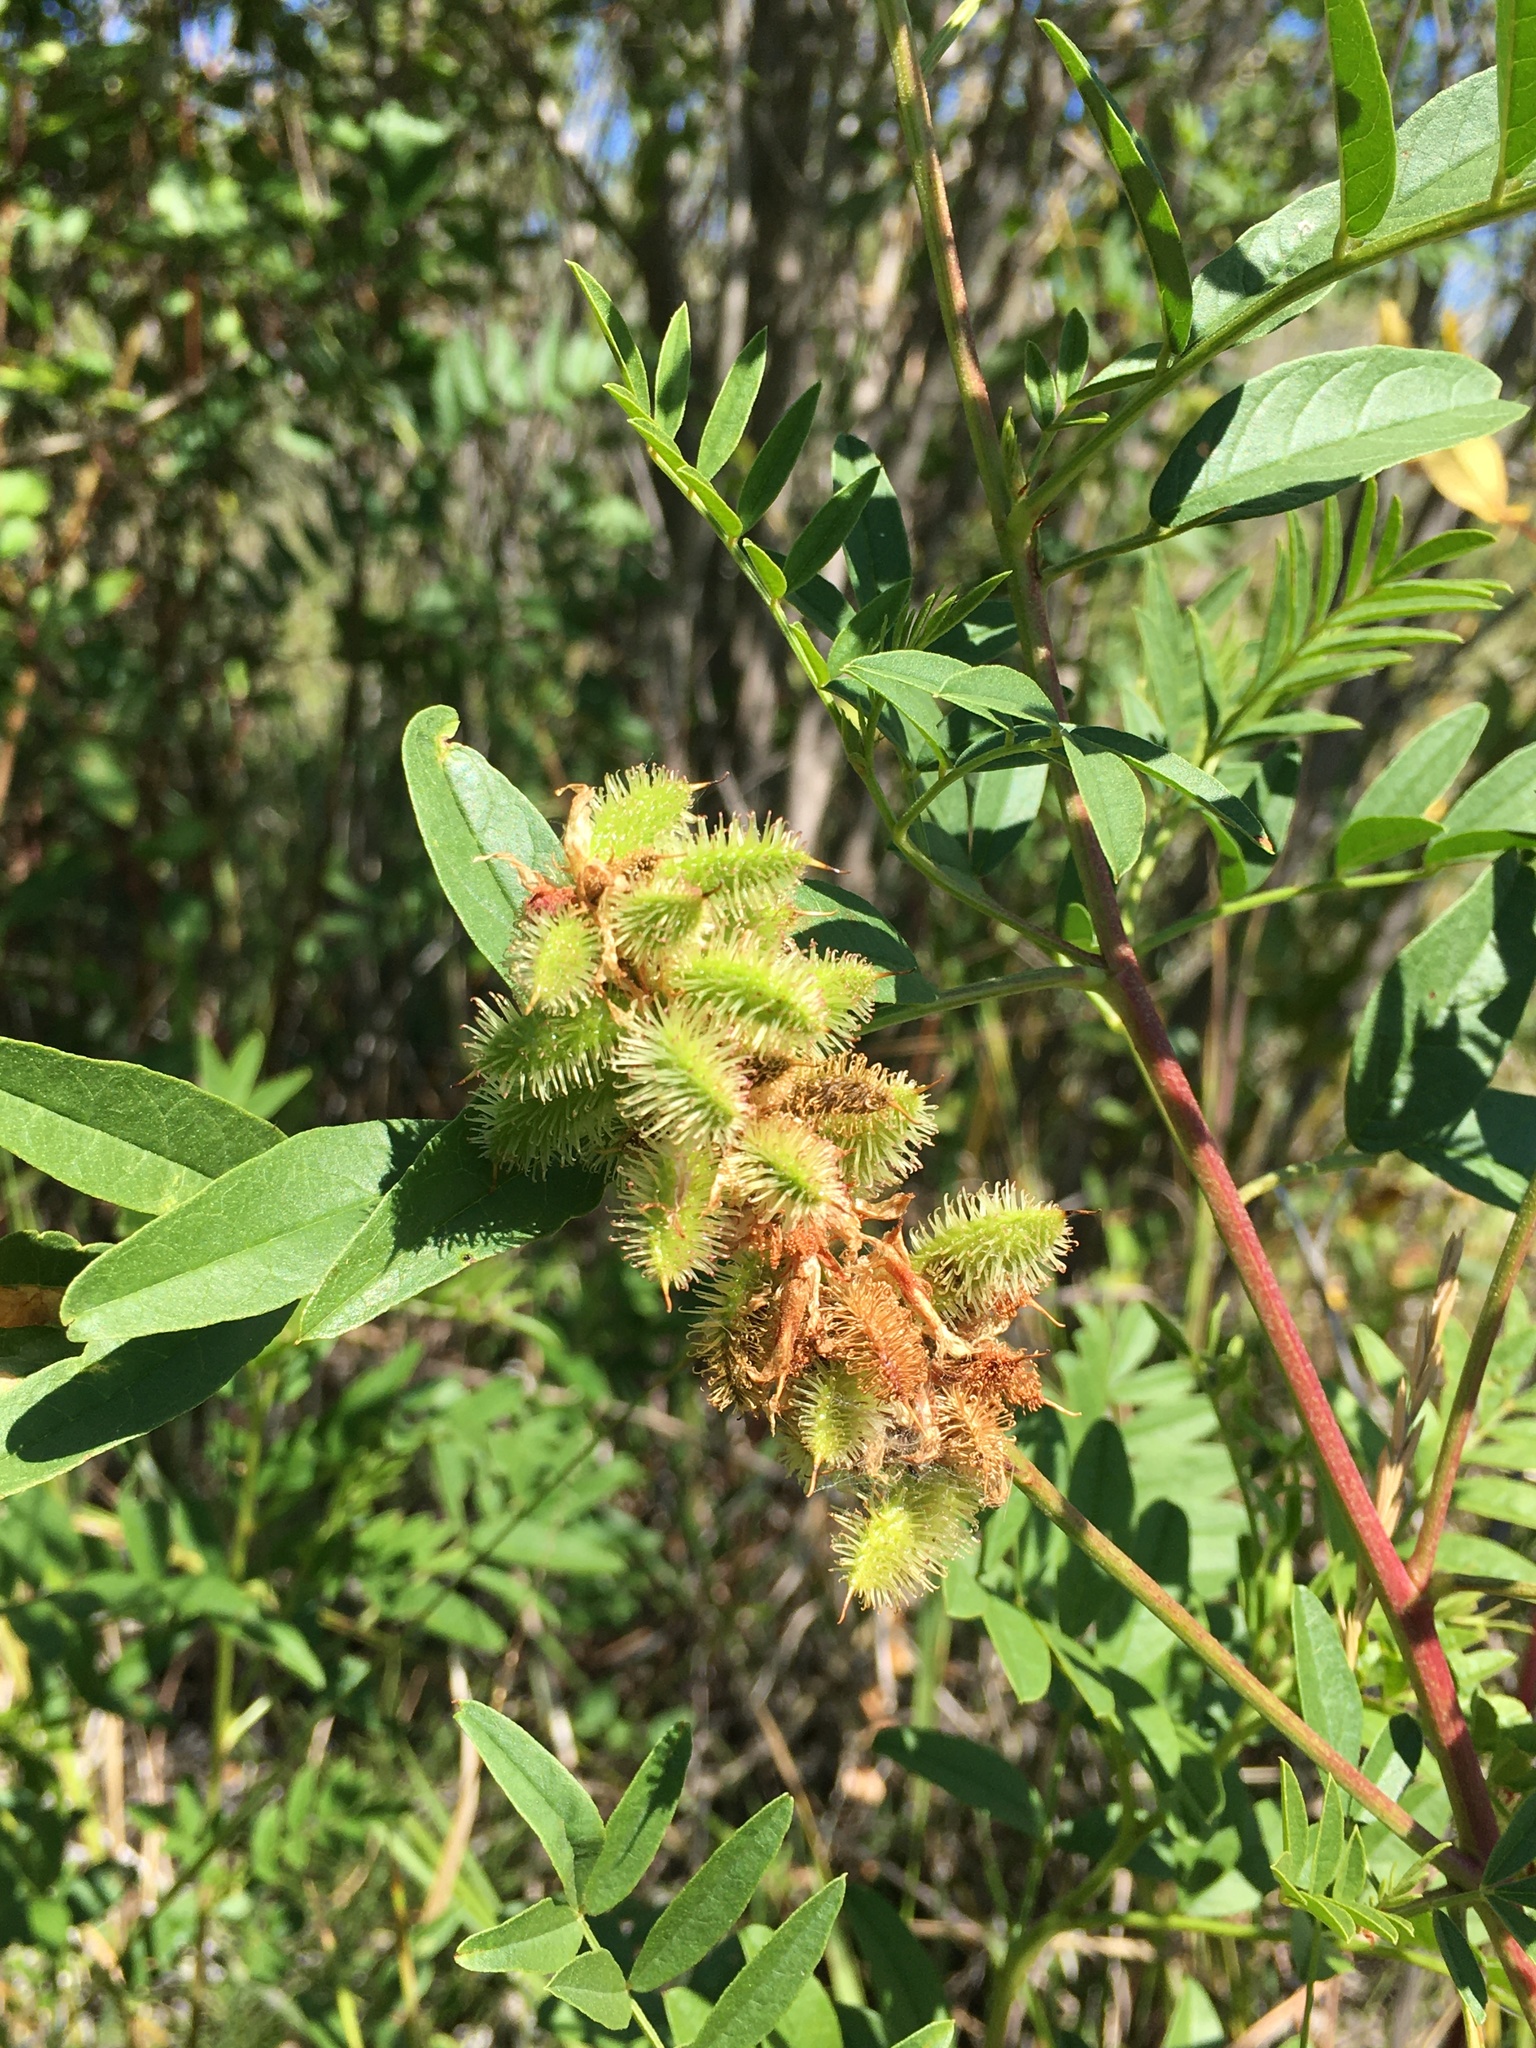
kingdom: Plantae
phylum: Tracheophyta
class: Magnoliopsida
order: Fabales
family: Fabaceae
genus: Glycyrrhiza
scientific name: Glycyrrhiza lepidota
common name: American liquorice
